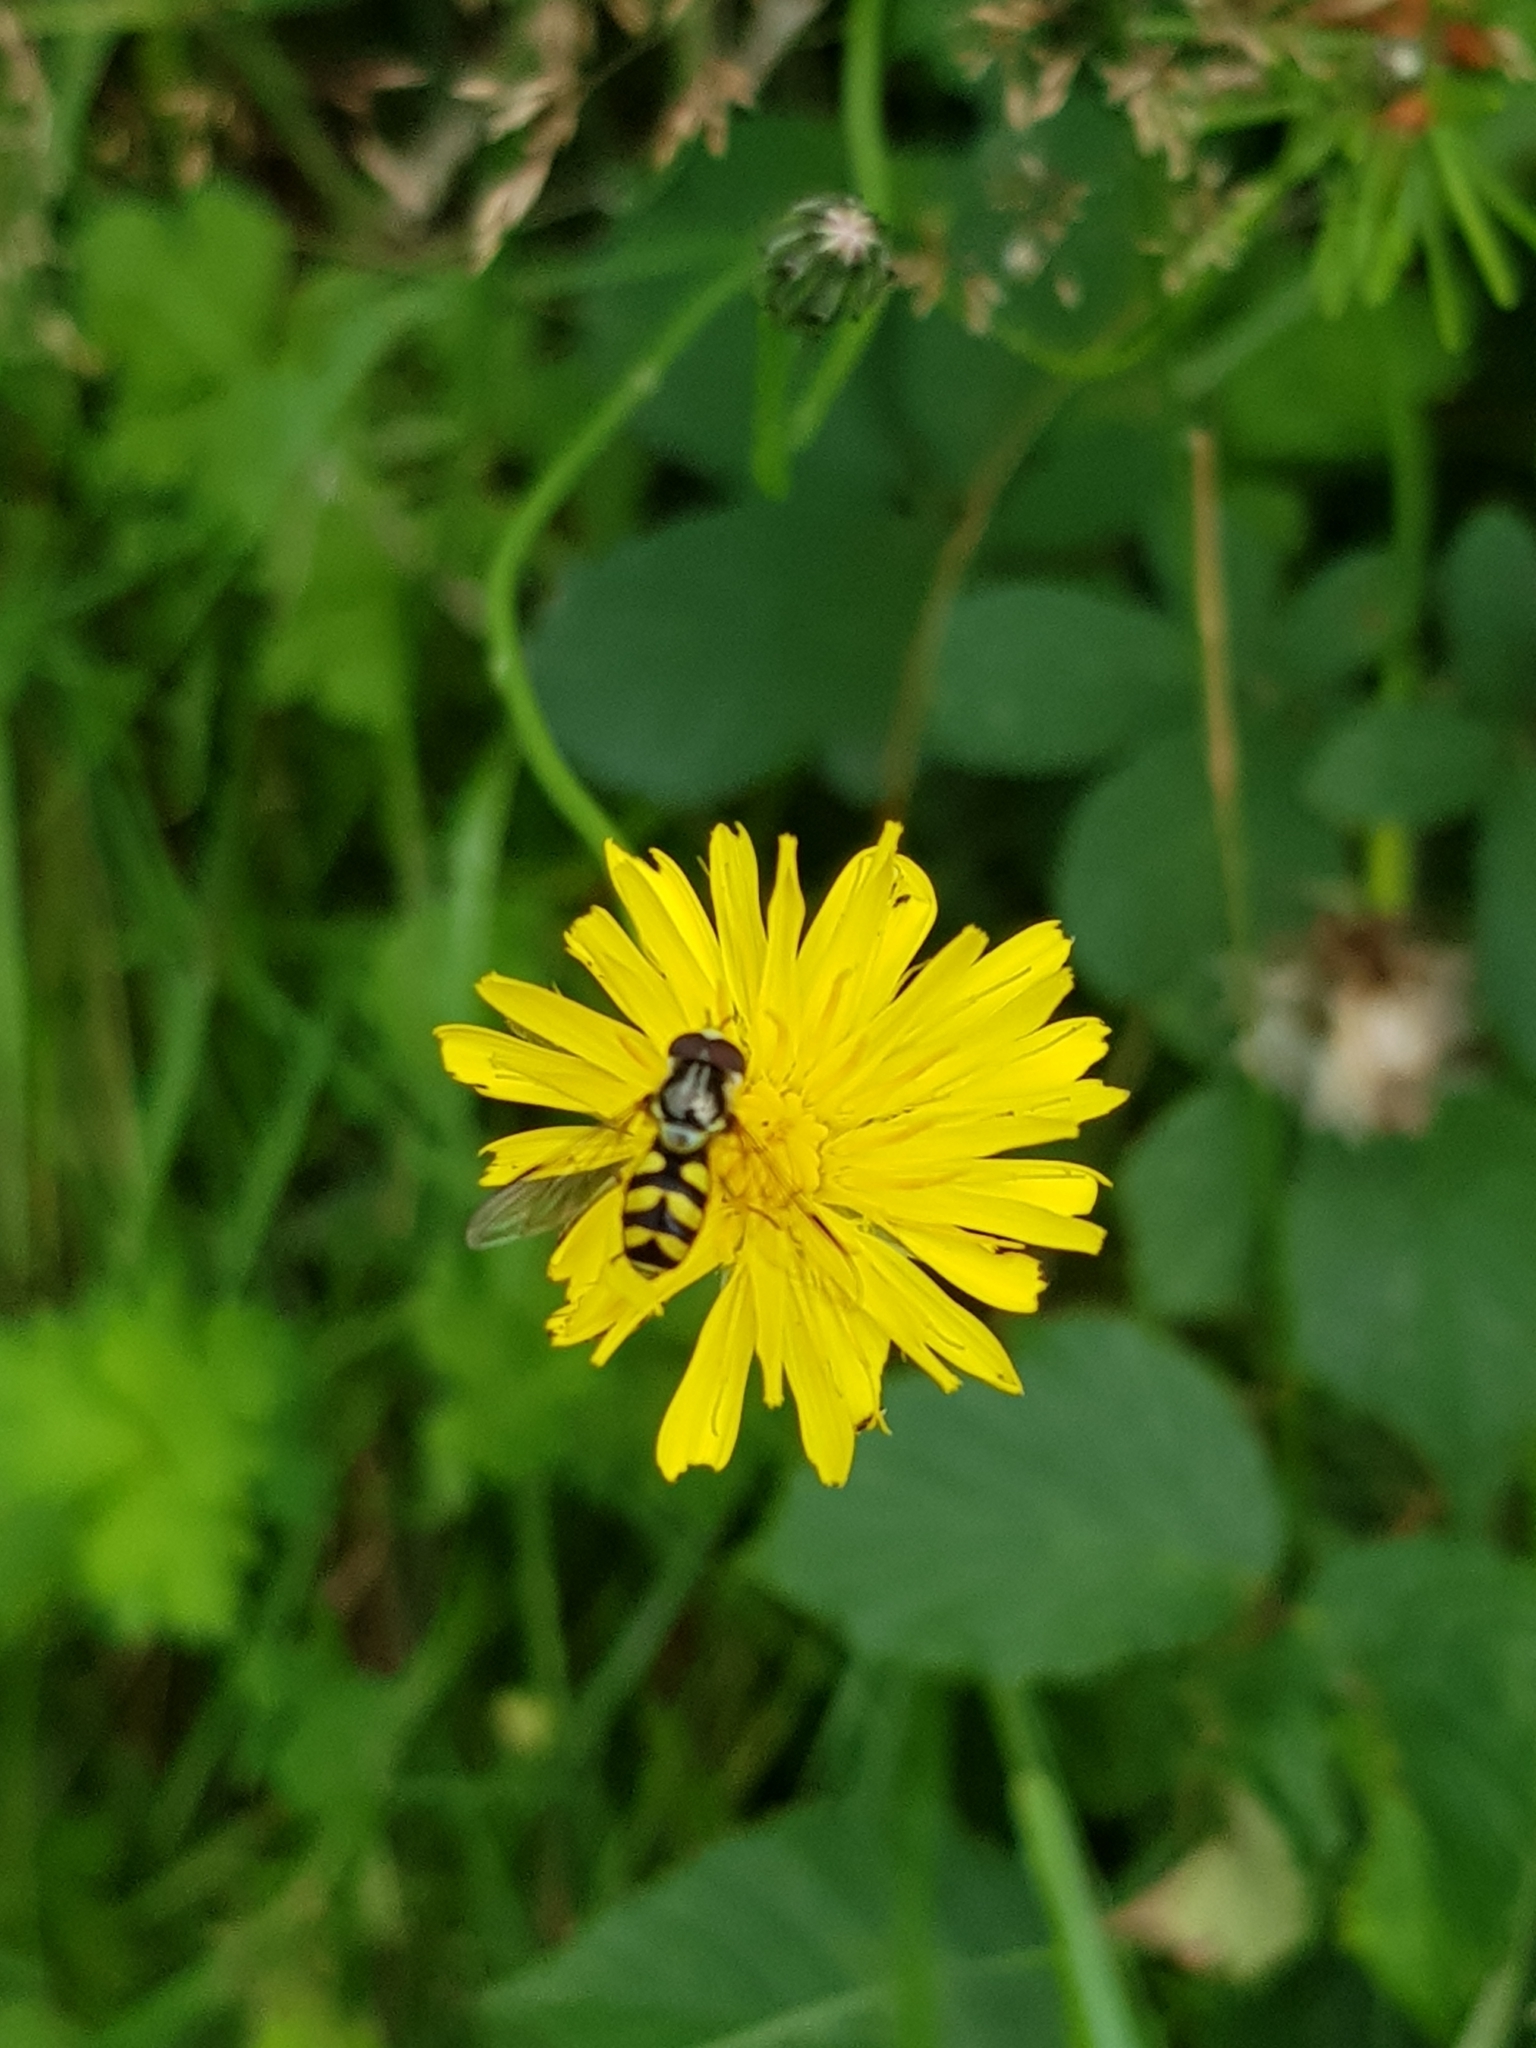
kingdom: Animalia
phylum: Arthropoda
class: Insecta
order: Diptera
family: Syrphidae
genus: Dasysyrphus
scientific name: Dasysyrphus albostriatus
